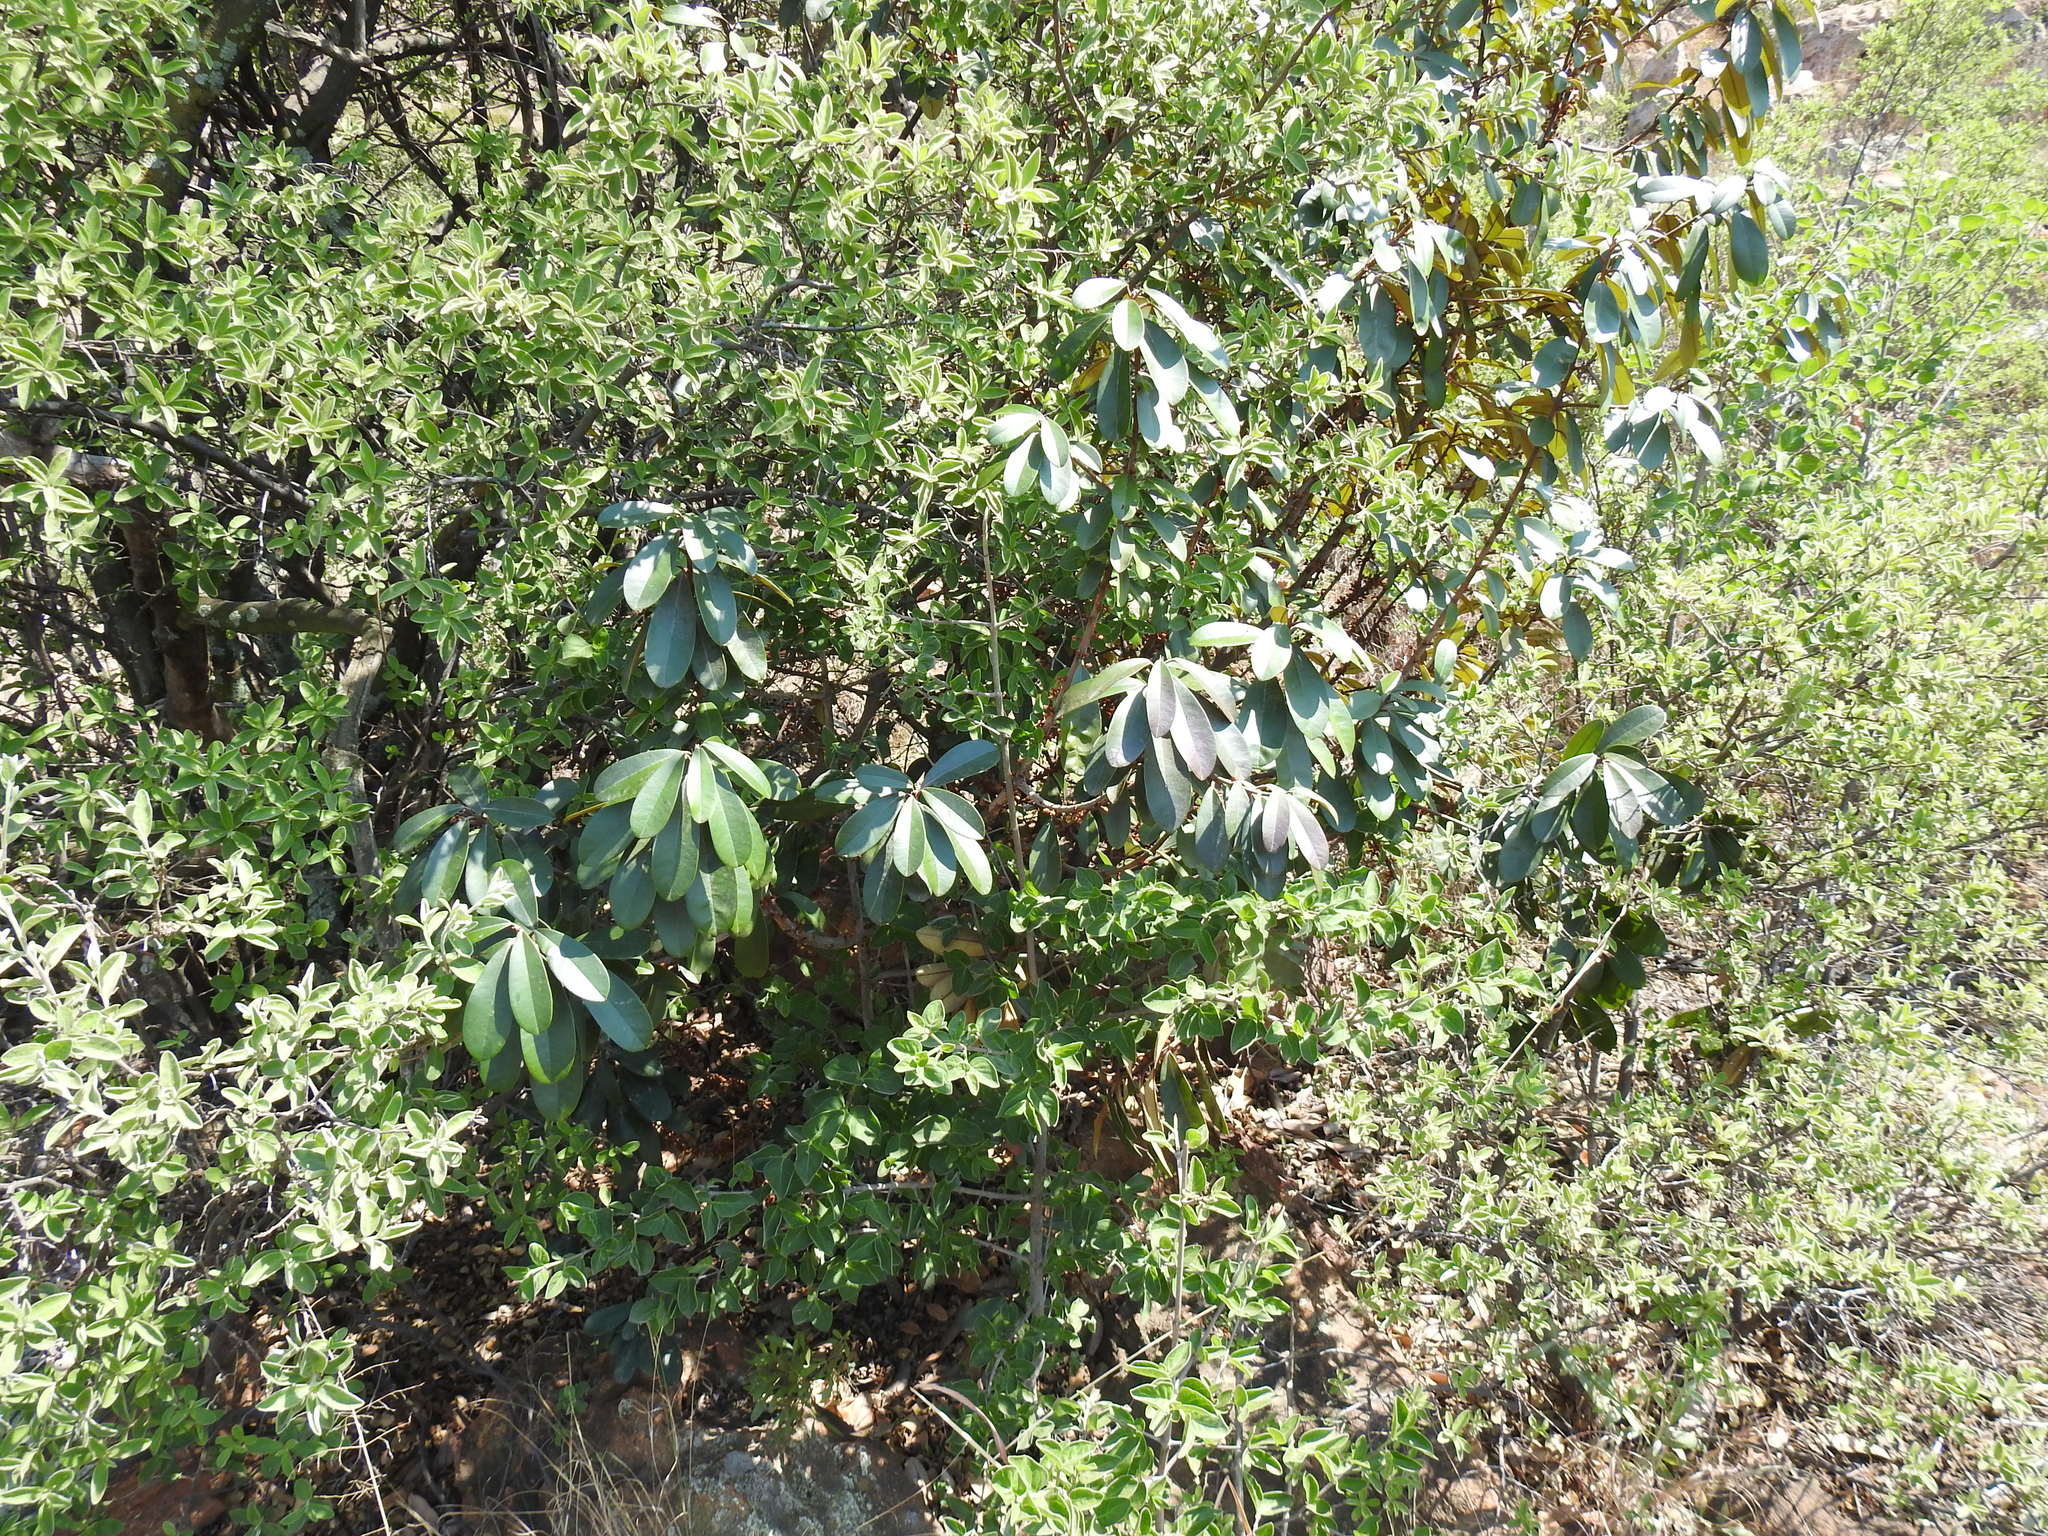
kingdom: Plantae
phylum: Tracheophyta
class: Magnoliopsida
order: Ericales
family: Sapotaceae
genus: Englerophytum
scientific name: Englerophytum magalismontanum
